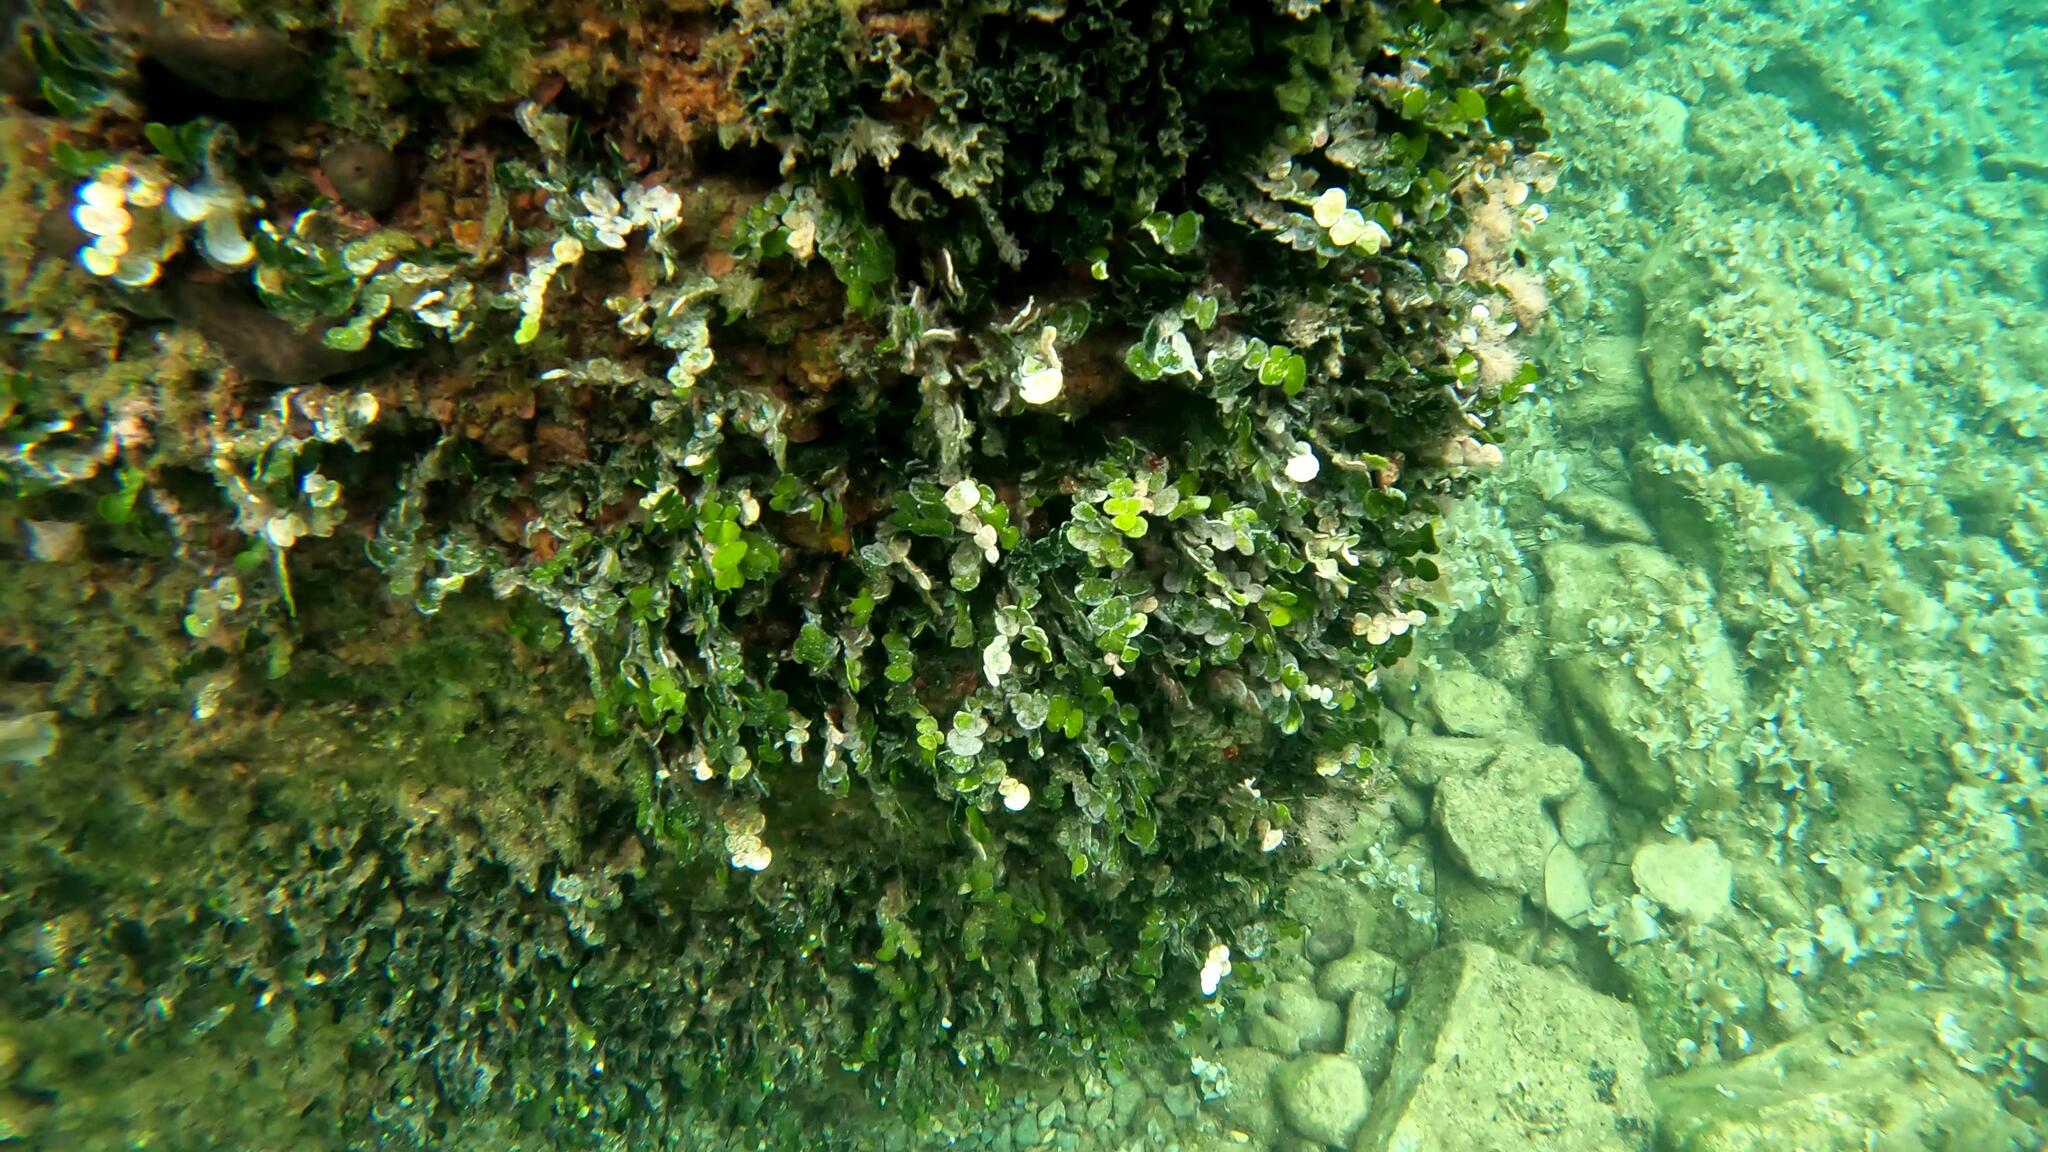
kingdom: Plantae
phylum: Chlorophyta
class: Ulvophyceae
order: Bryopsidales
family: Halimedaceae
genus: Halimeda
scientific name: Halimeda tuna
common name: Stalked lettuce leaf algae
